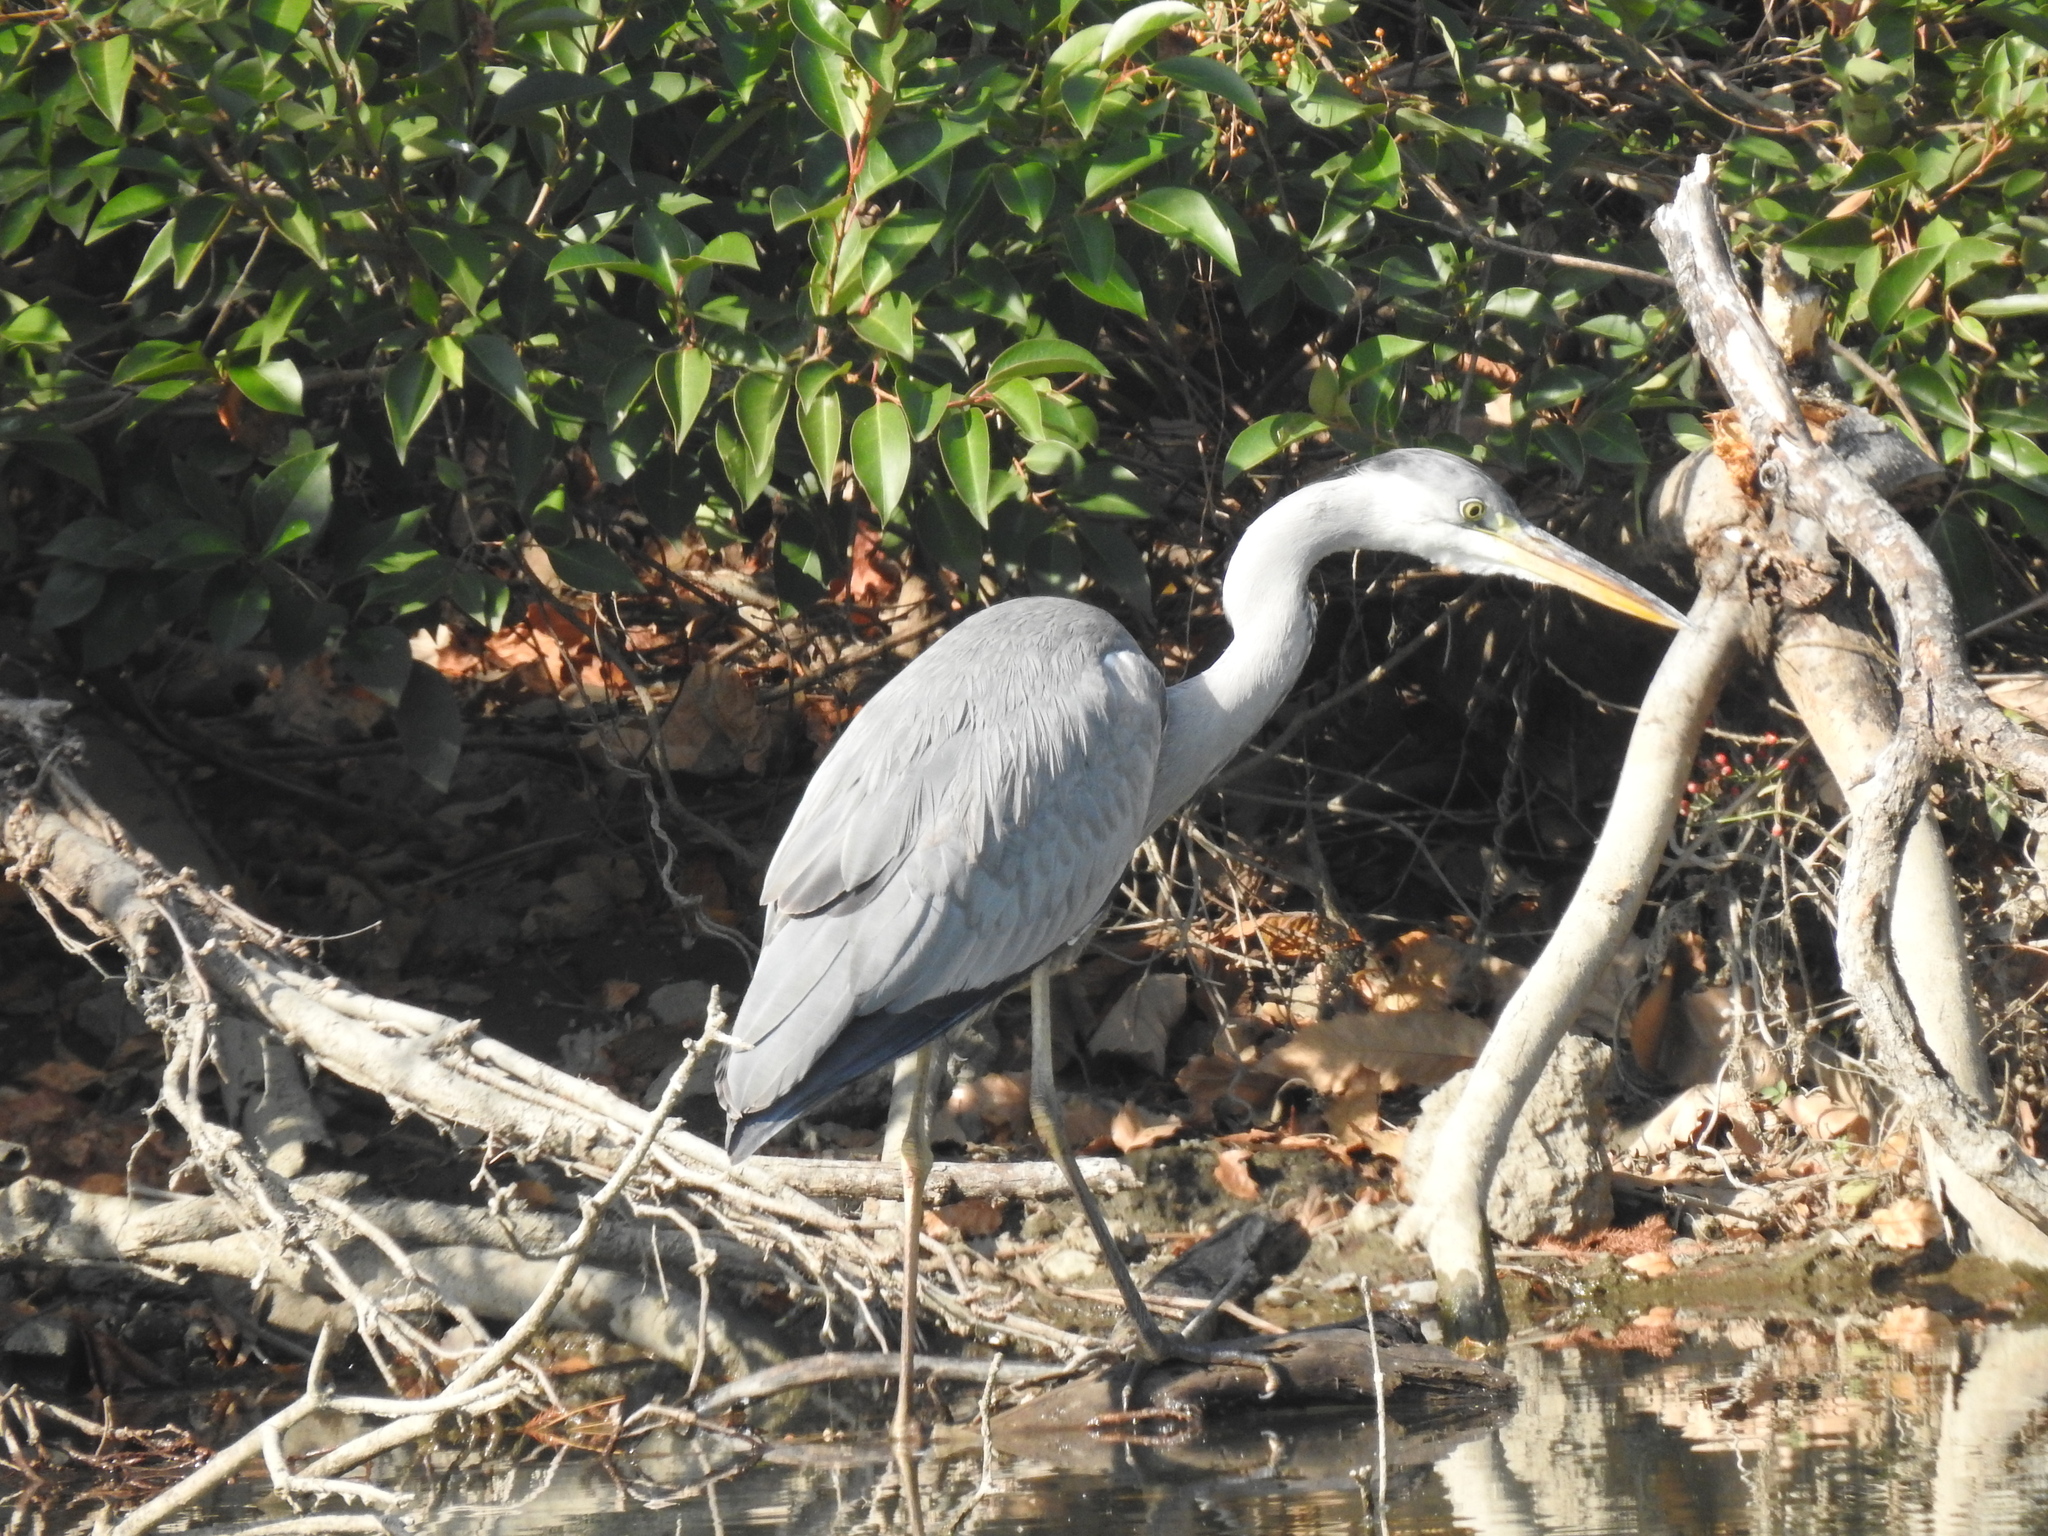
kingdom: Animalia
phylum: Chordata
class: Aves
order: Pelecaniformes
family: Ardeidae
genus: Ardea
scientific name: Ardea cinerea
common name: Grey heron
